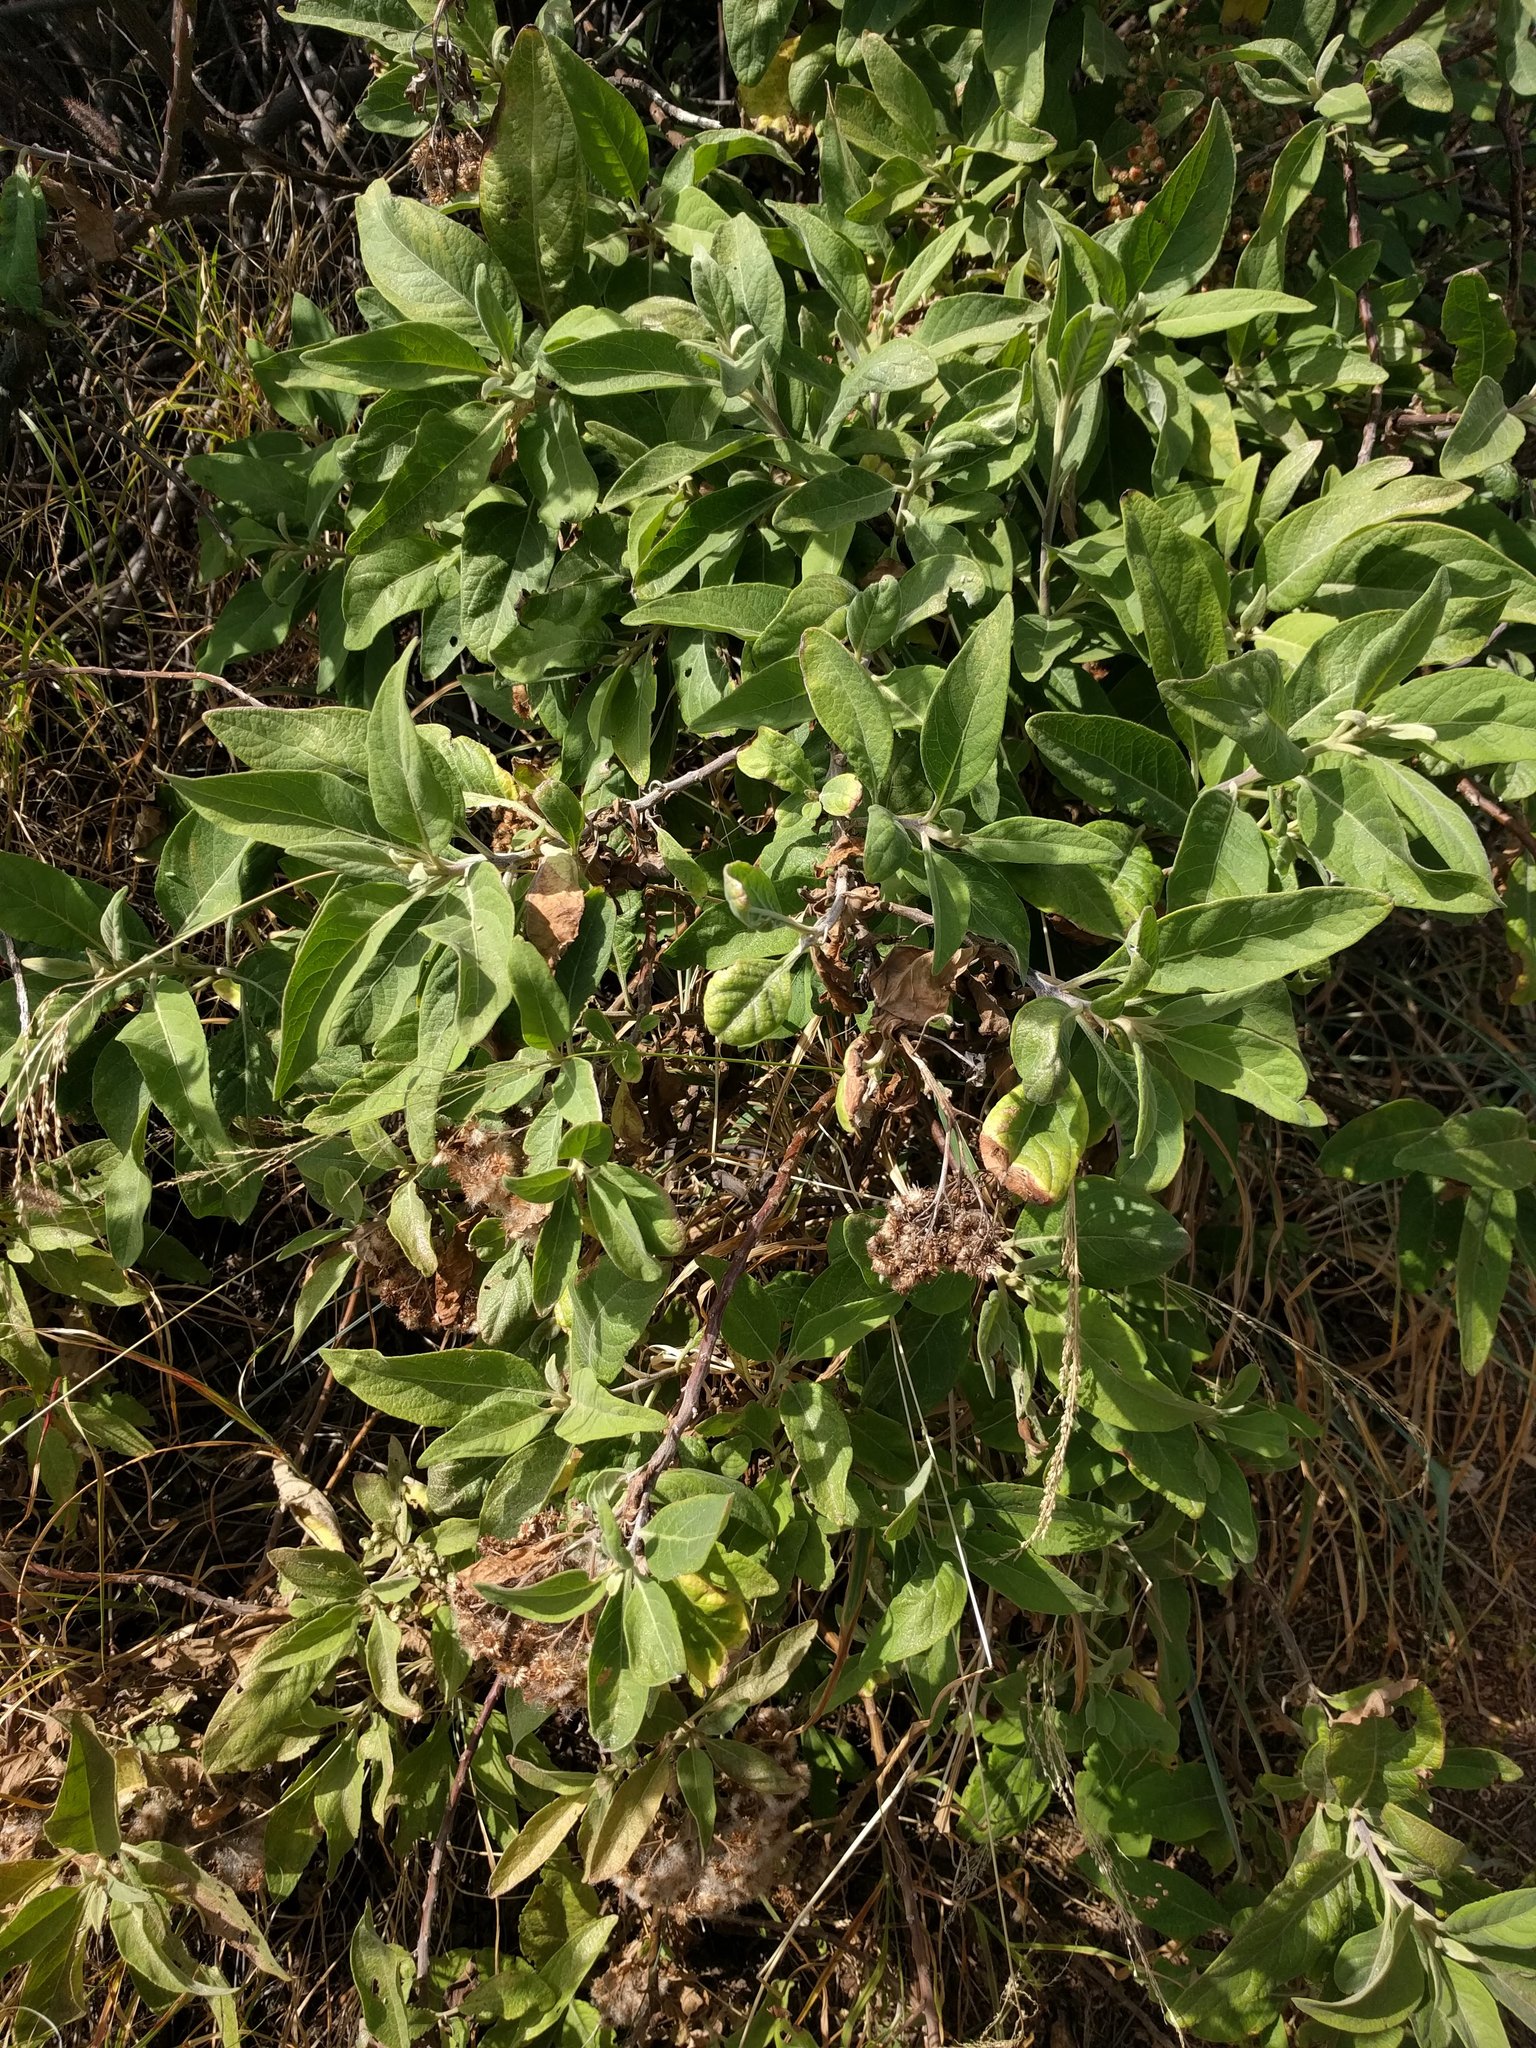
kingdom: Plantae
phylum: Tracheophyta
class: Magnoliopsida
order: Asterales
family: Asteraceae
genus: Pluchea
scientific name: Pluchea carolinensis
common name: Marsh fleabane
